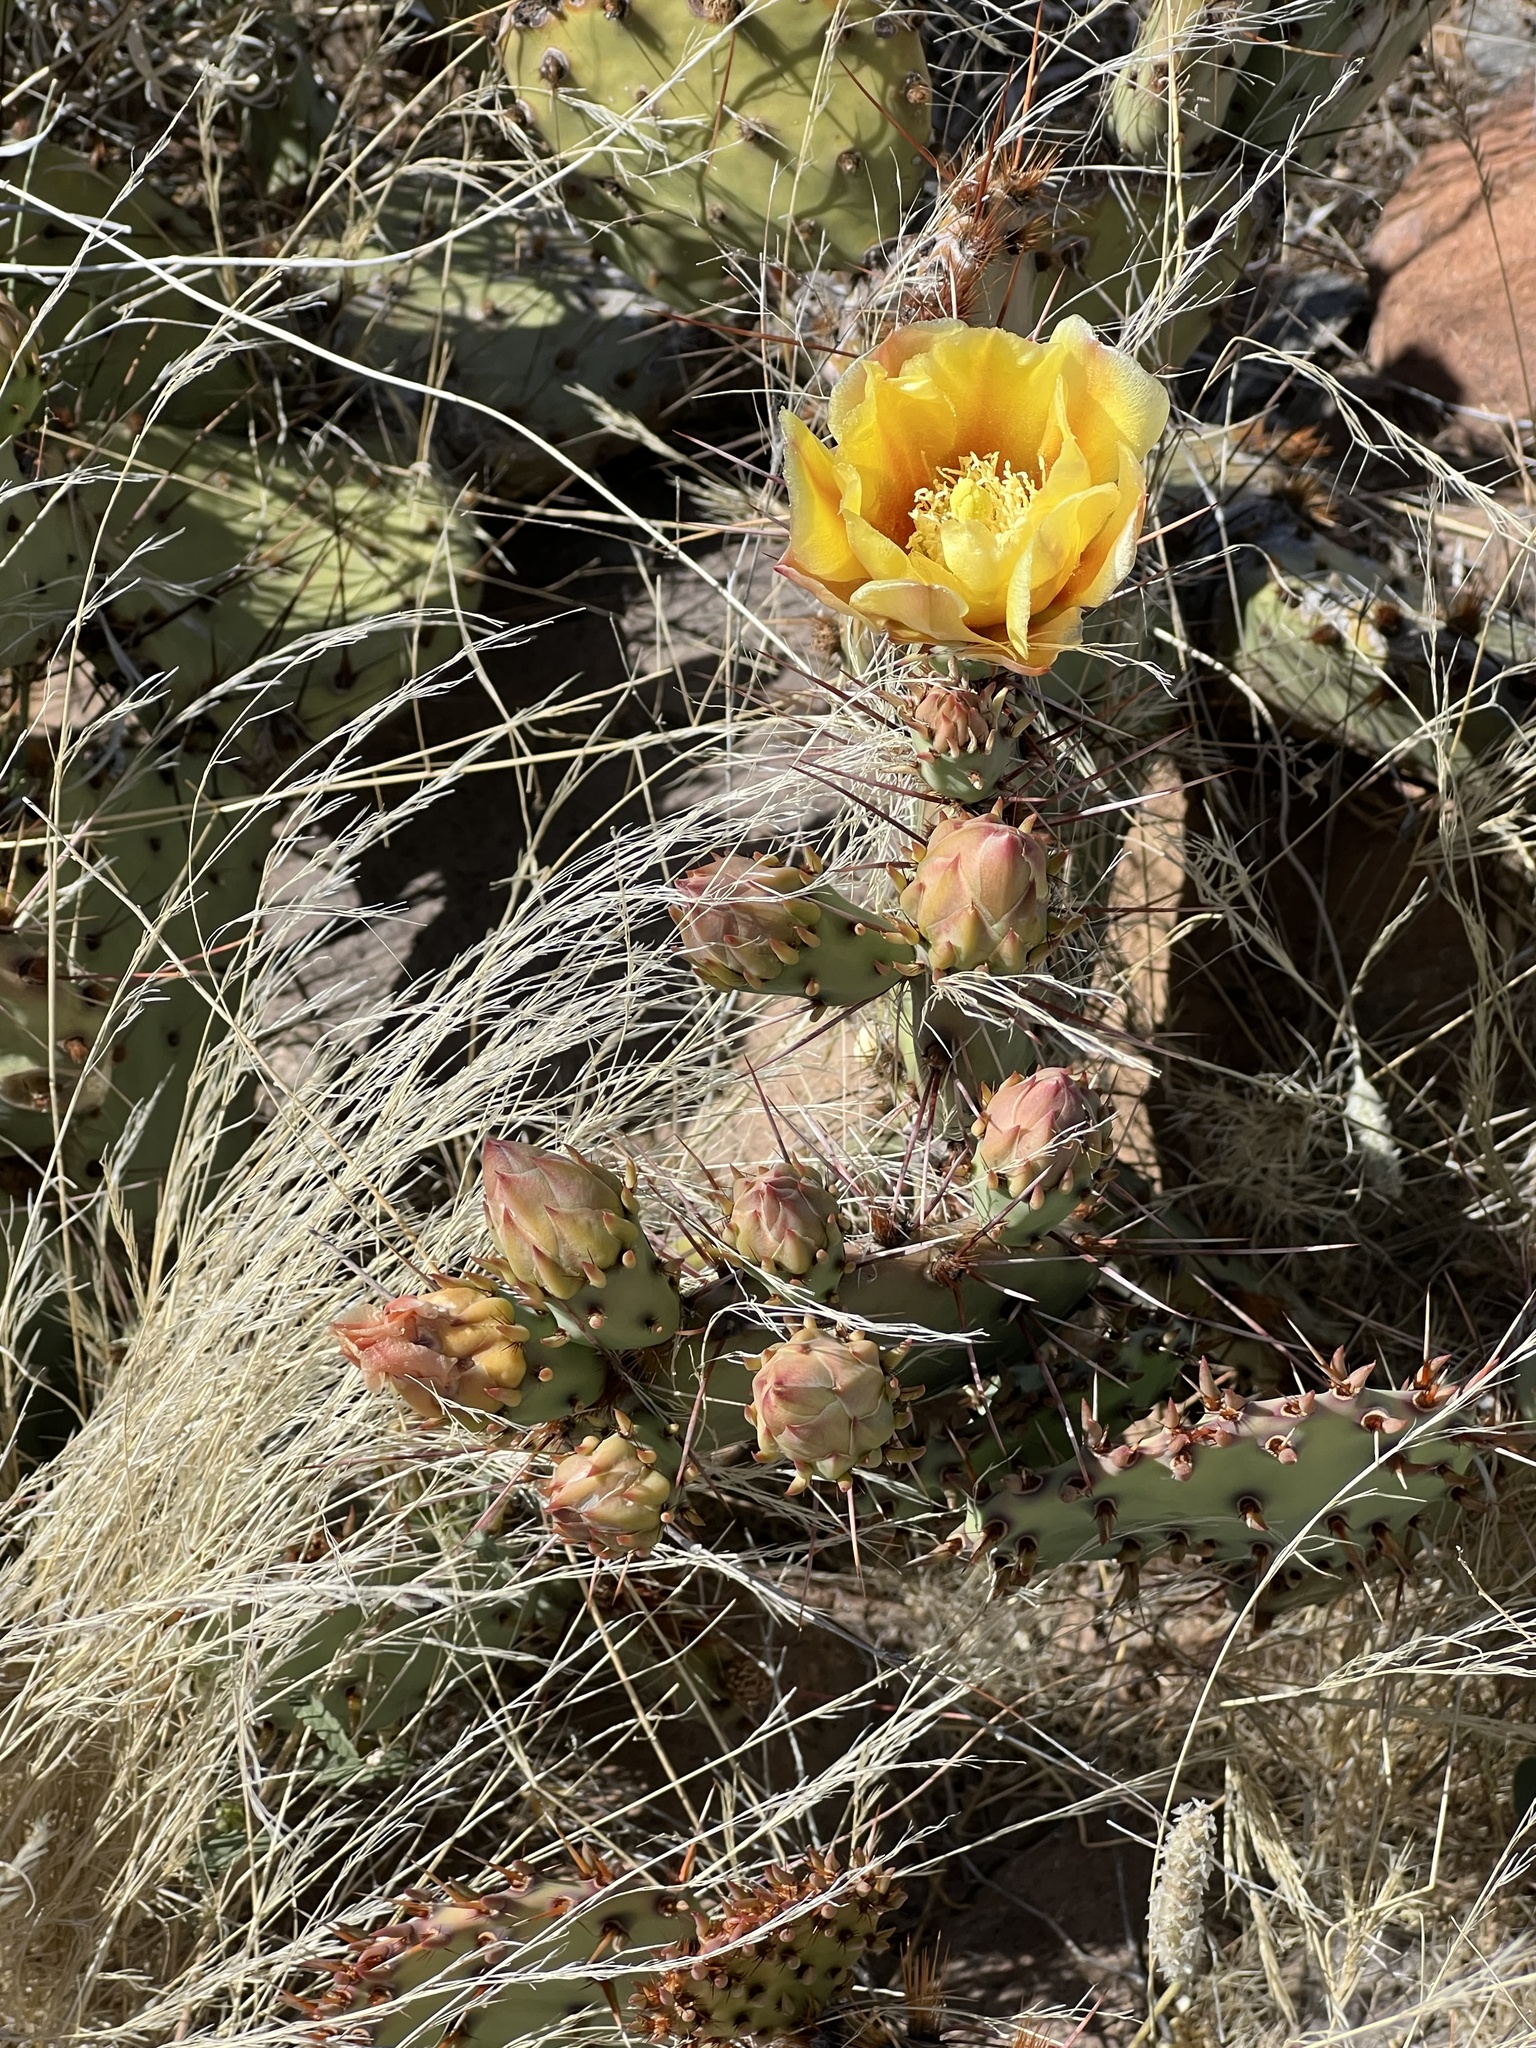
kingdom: Plantae
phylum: Tracheophyta
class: Magnoliopsida
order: Caryophyllales
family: Cactaceae
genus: Opuntia
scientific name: Opuntia phaeacantha
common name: New mexico prickly-pear
